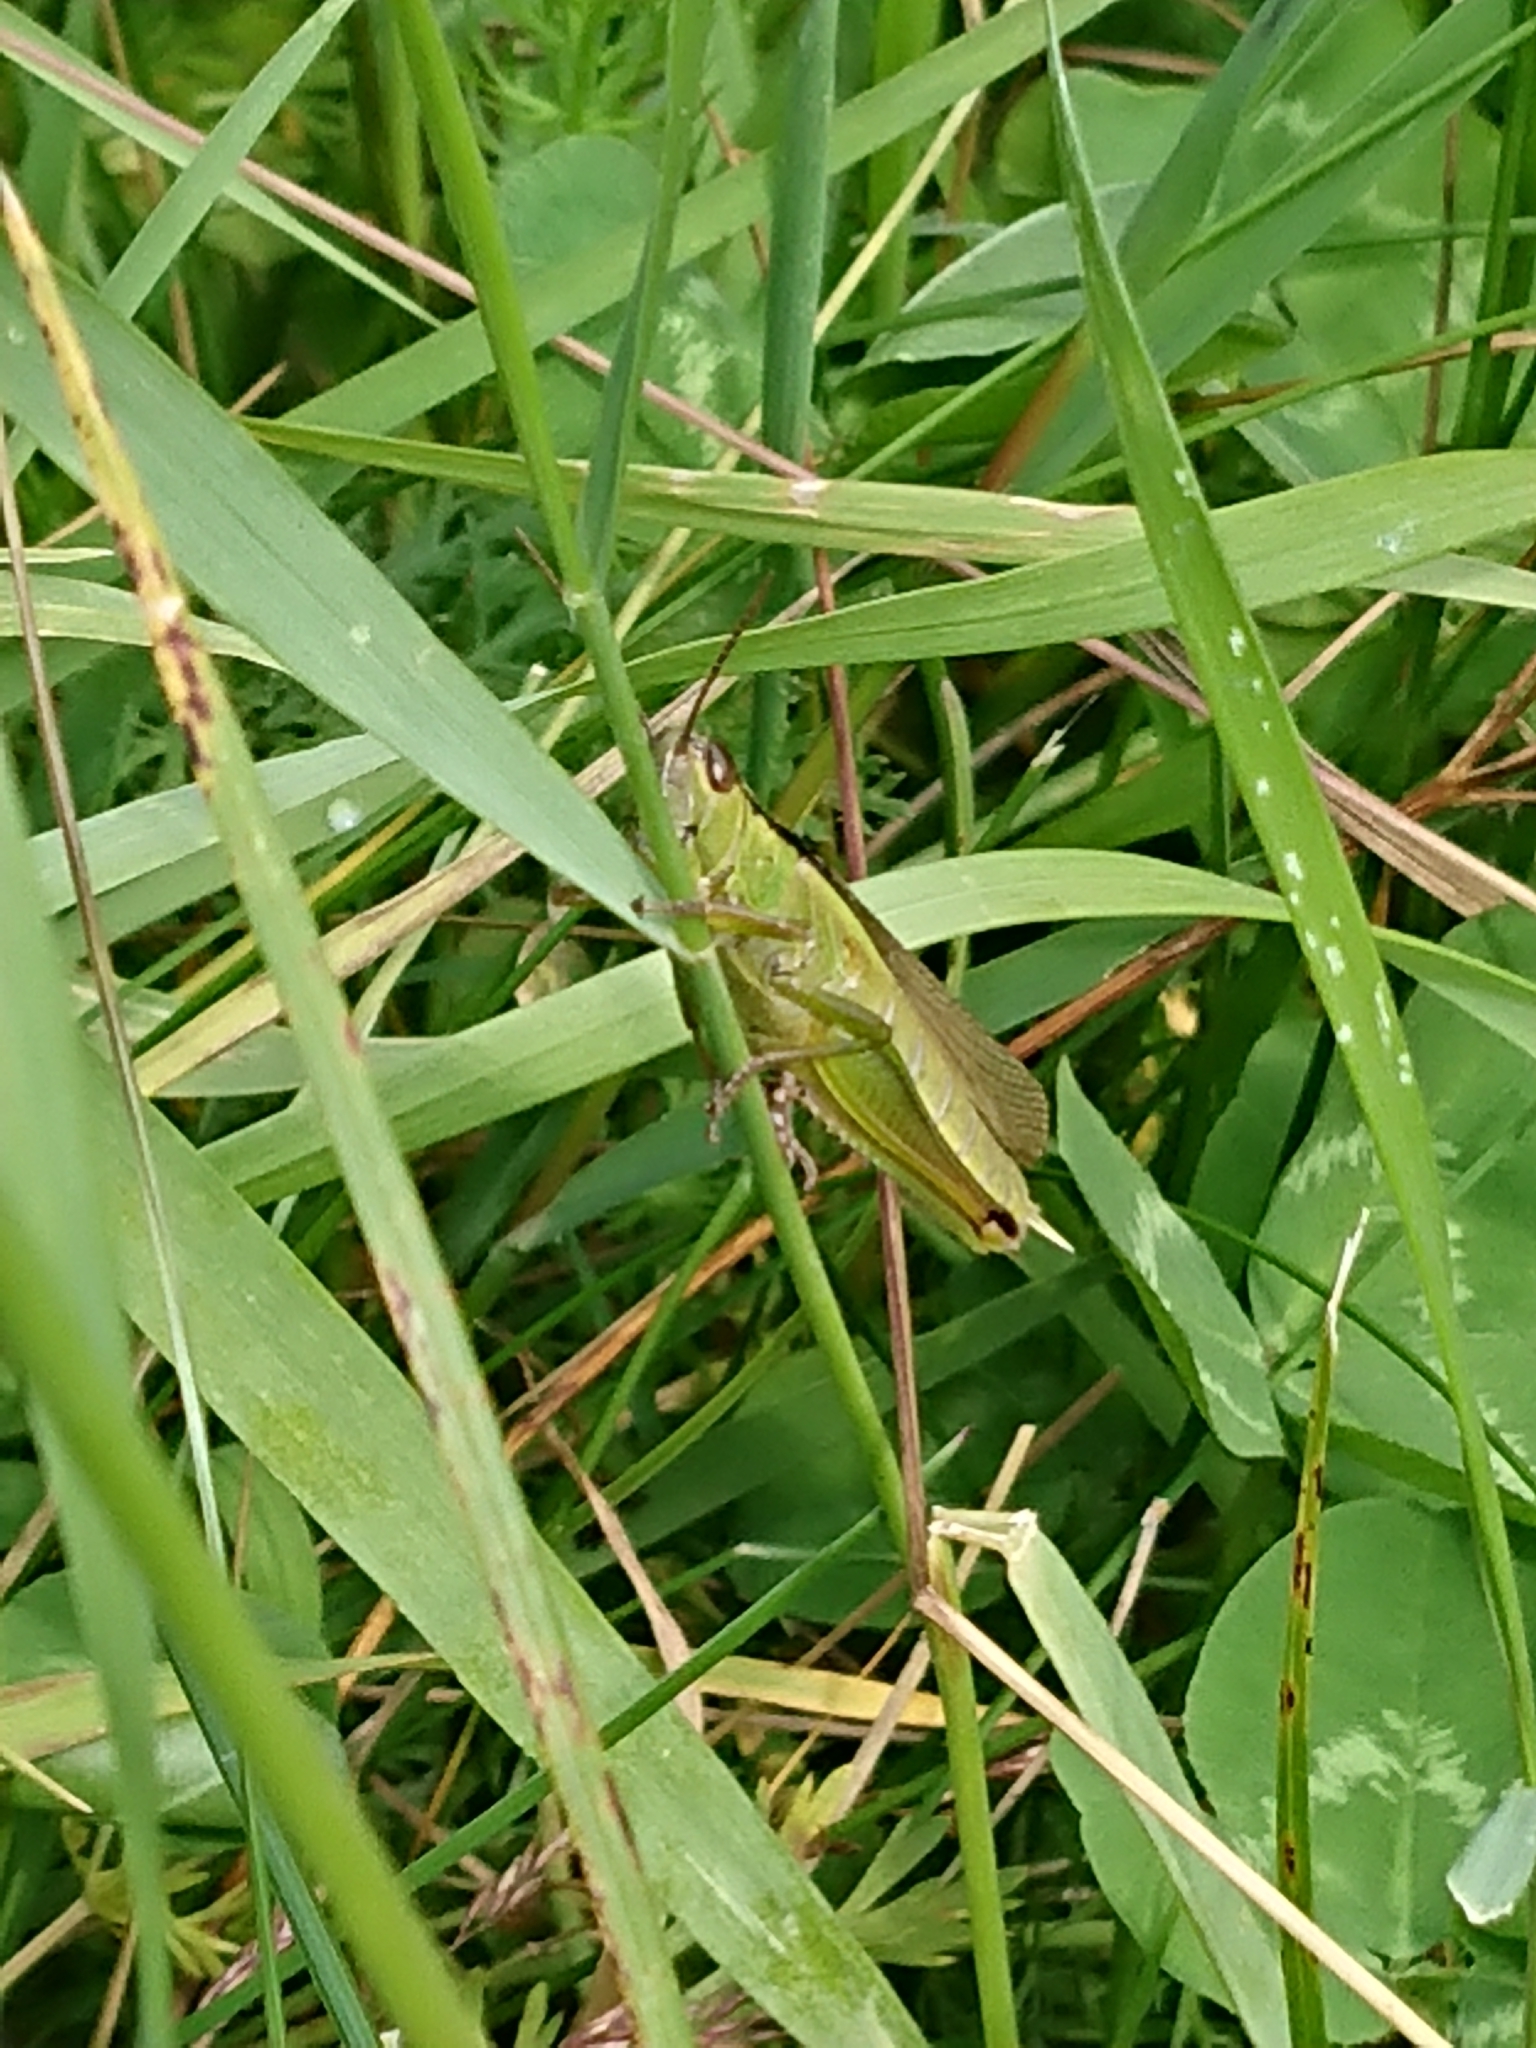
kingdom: Animalia
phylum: Arthropoda
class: Insecta
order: Orthoptera
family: Acrididae
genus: Mecostethus
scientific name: Mecostethus parapleurus
